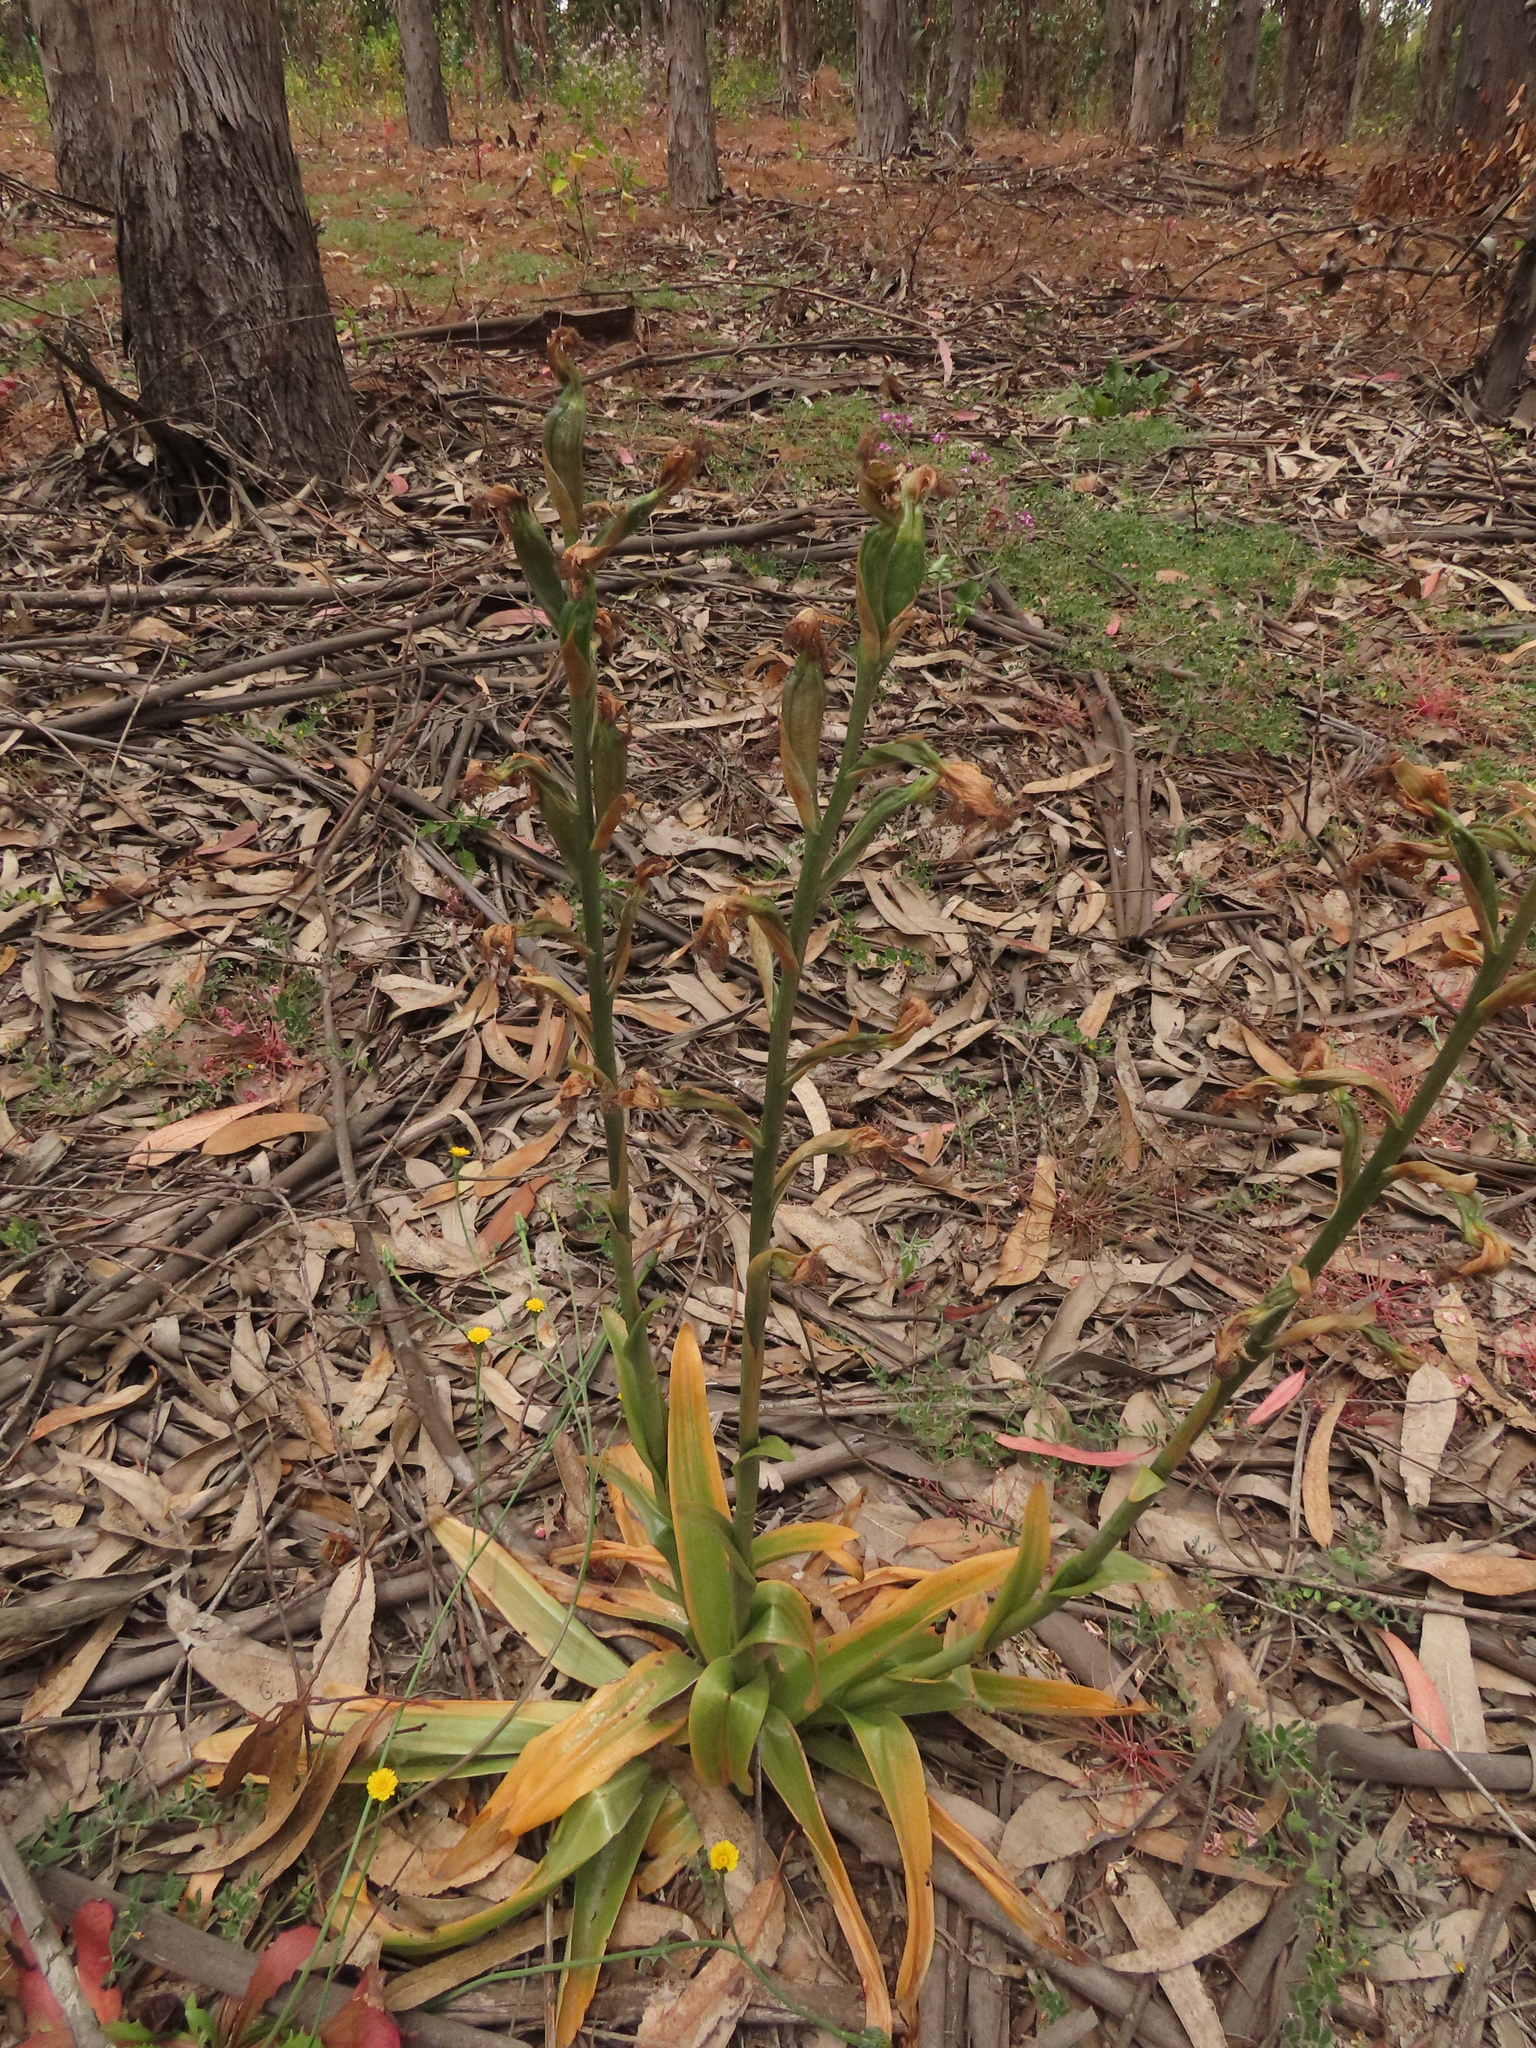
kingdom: Plantae
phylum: Tracheophyta
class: Liliopsida
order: Asparagales
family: Orchidaceae
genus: Bipinnula
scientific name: Bipinnula fimbriata
